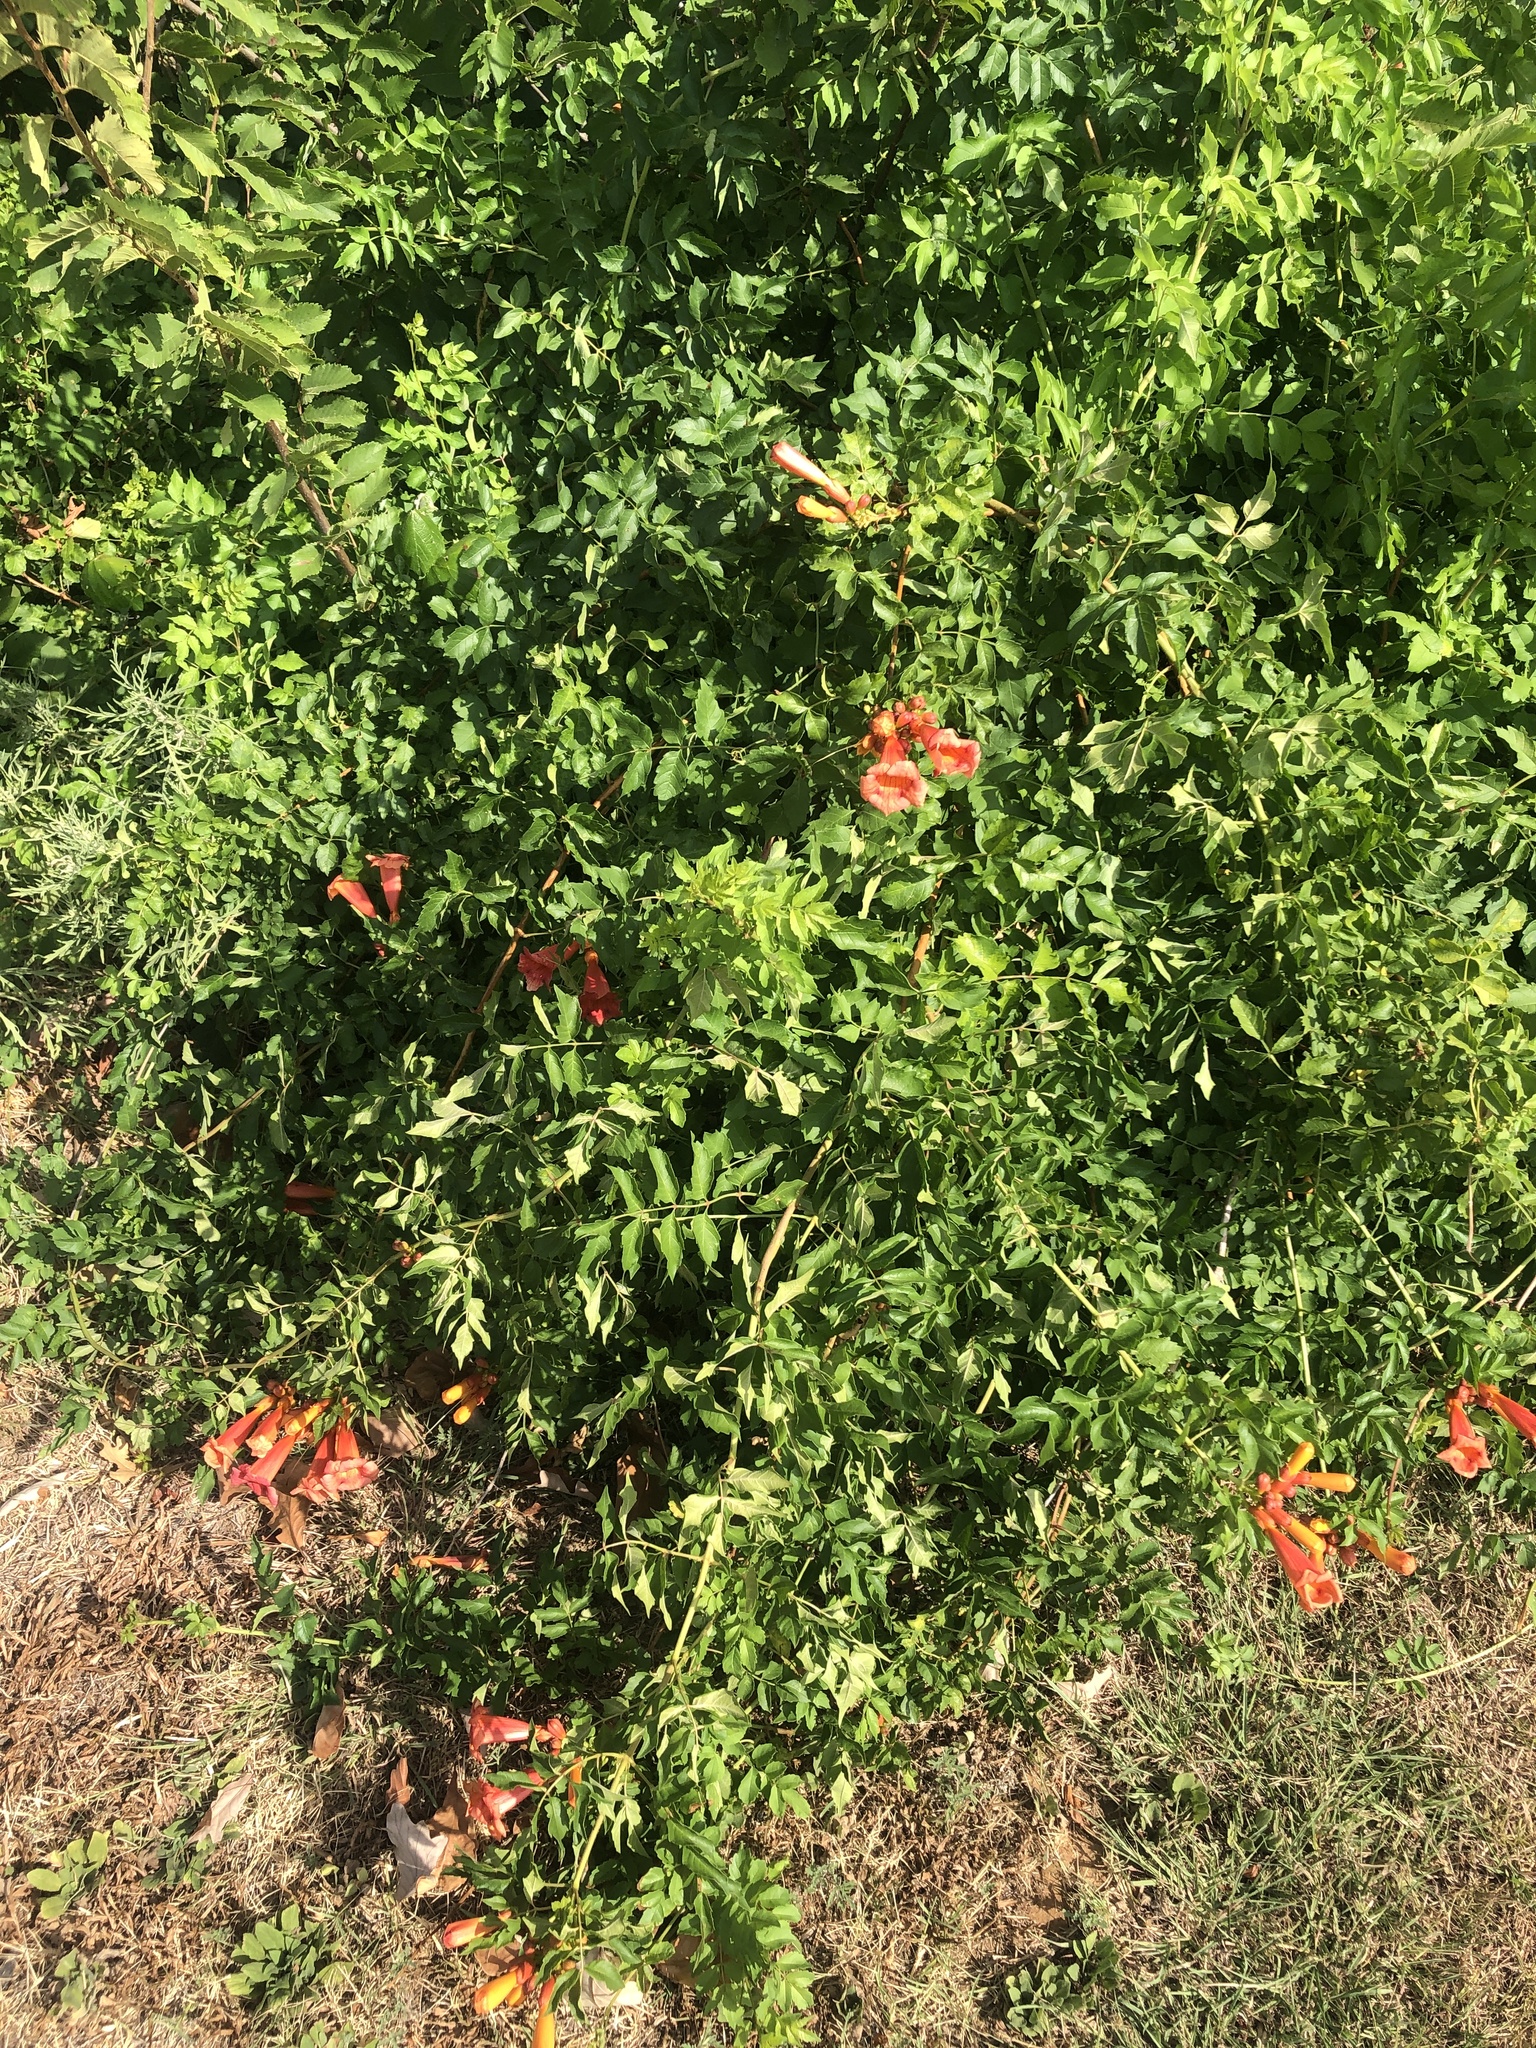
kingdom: Plantae
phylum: Tracheophyta
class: Magnoliopsida
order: Lamiales
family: Bignoniaceae
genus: Campsis
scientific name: Campsis radicans
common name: Trumpet-creeper
